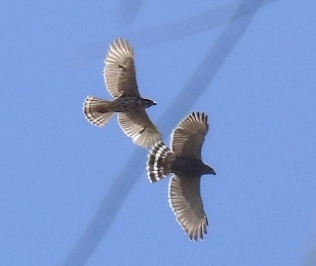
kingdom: Animalia
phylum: Chordata
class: Aves
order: Accipitriformes
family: Accipitridae
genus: Buteo
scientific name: Buteo nitidus
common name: Grey-lined hawk
